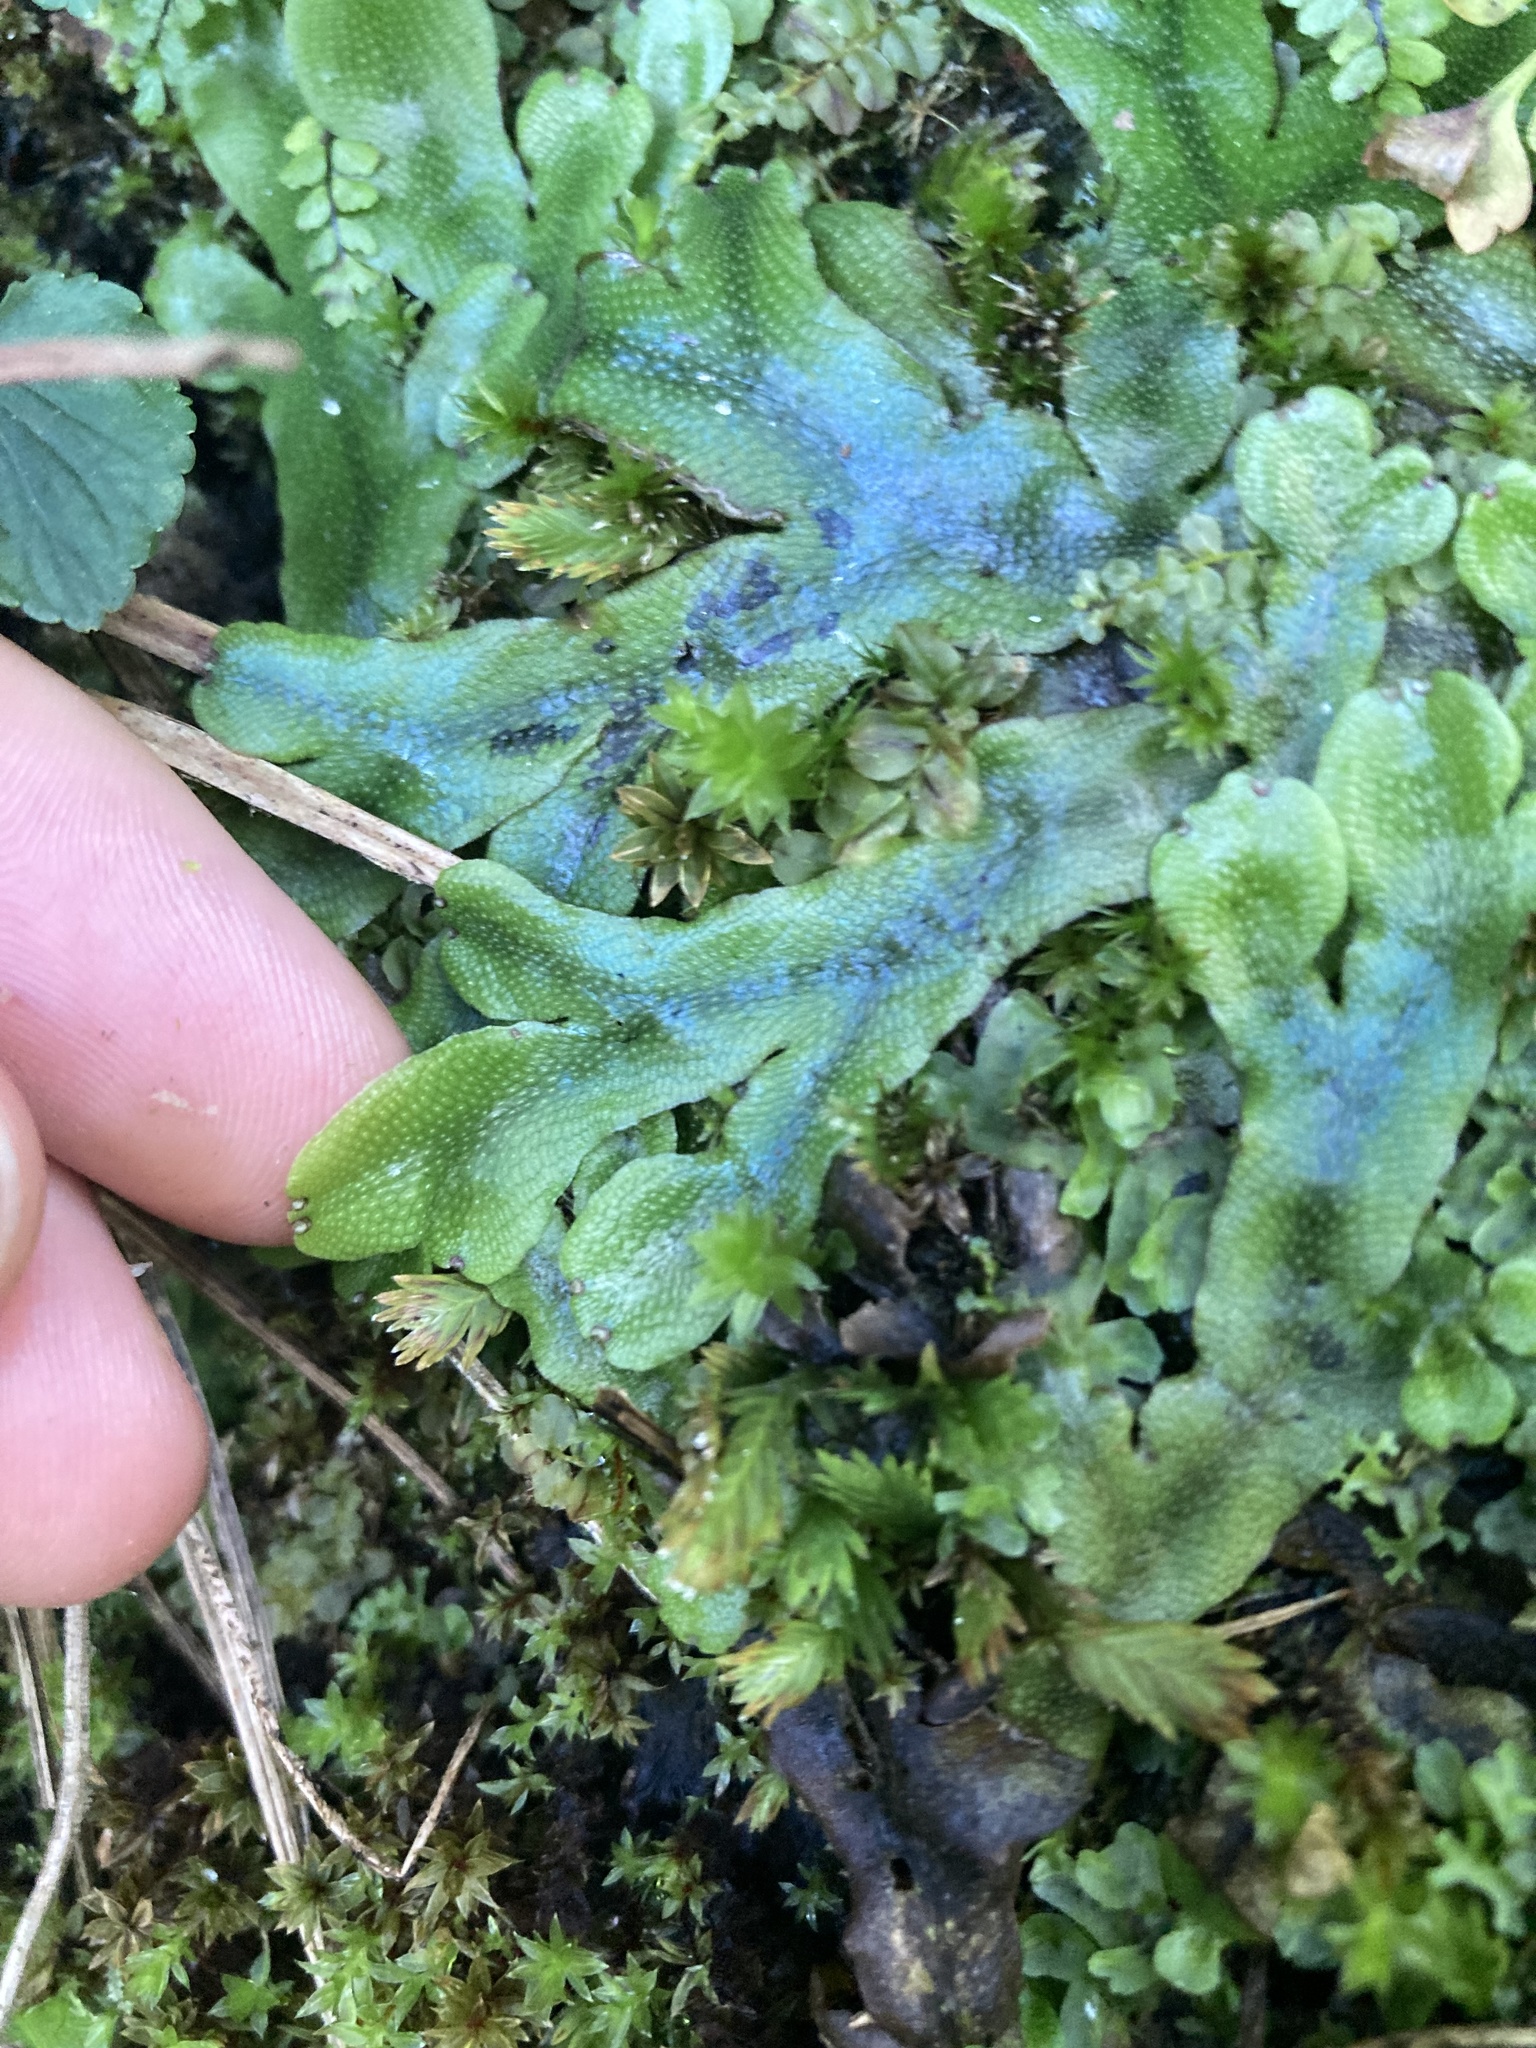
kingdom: Plantae
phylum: Marchantiophyta
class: Marchantiopsida
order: Marchantiales
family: Conocephalaceae
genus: Conocephalum
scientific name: Conocephalum conicum
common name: Great scented liverwort
